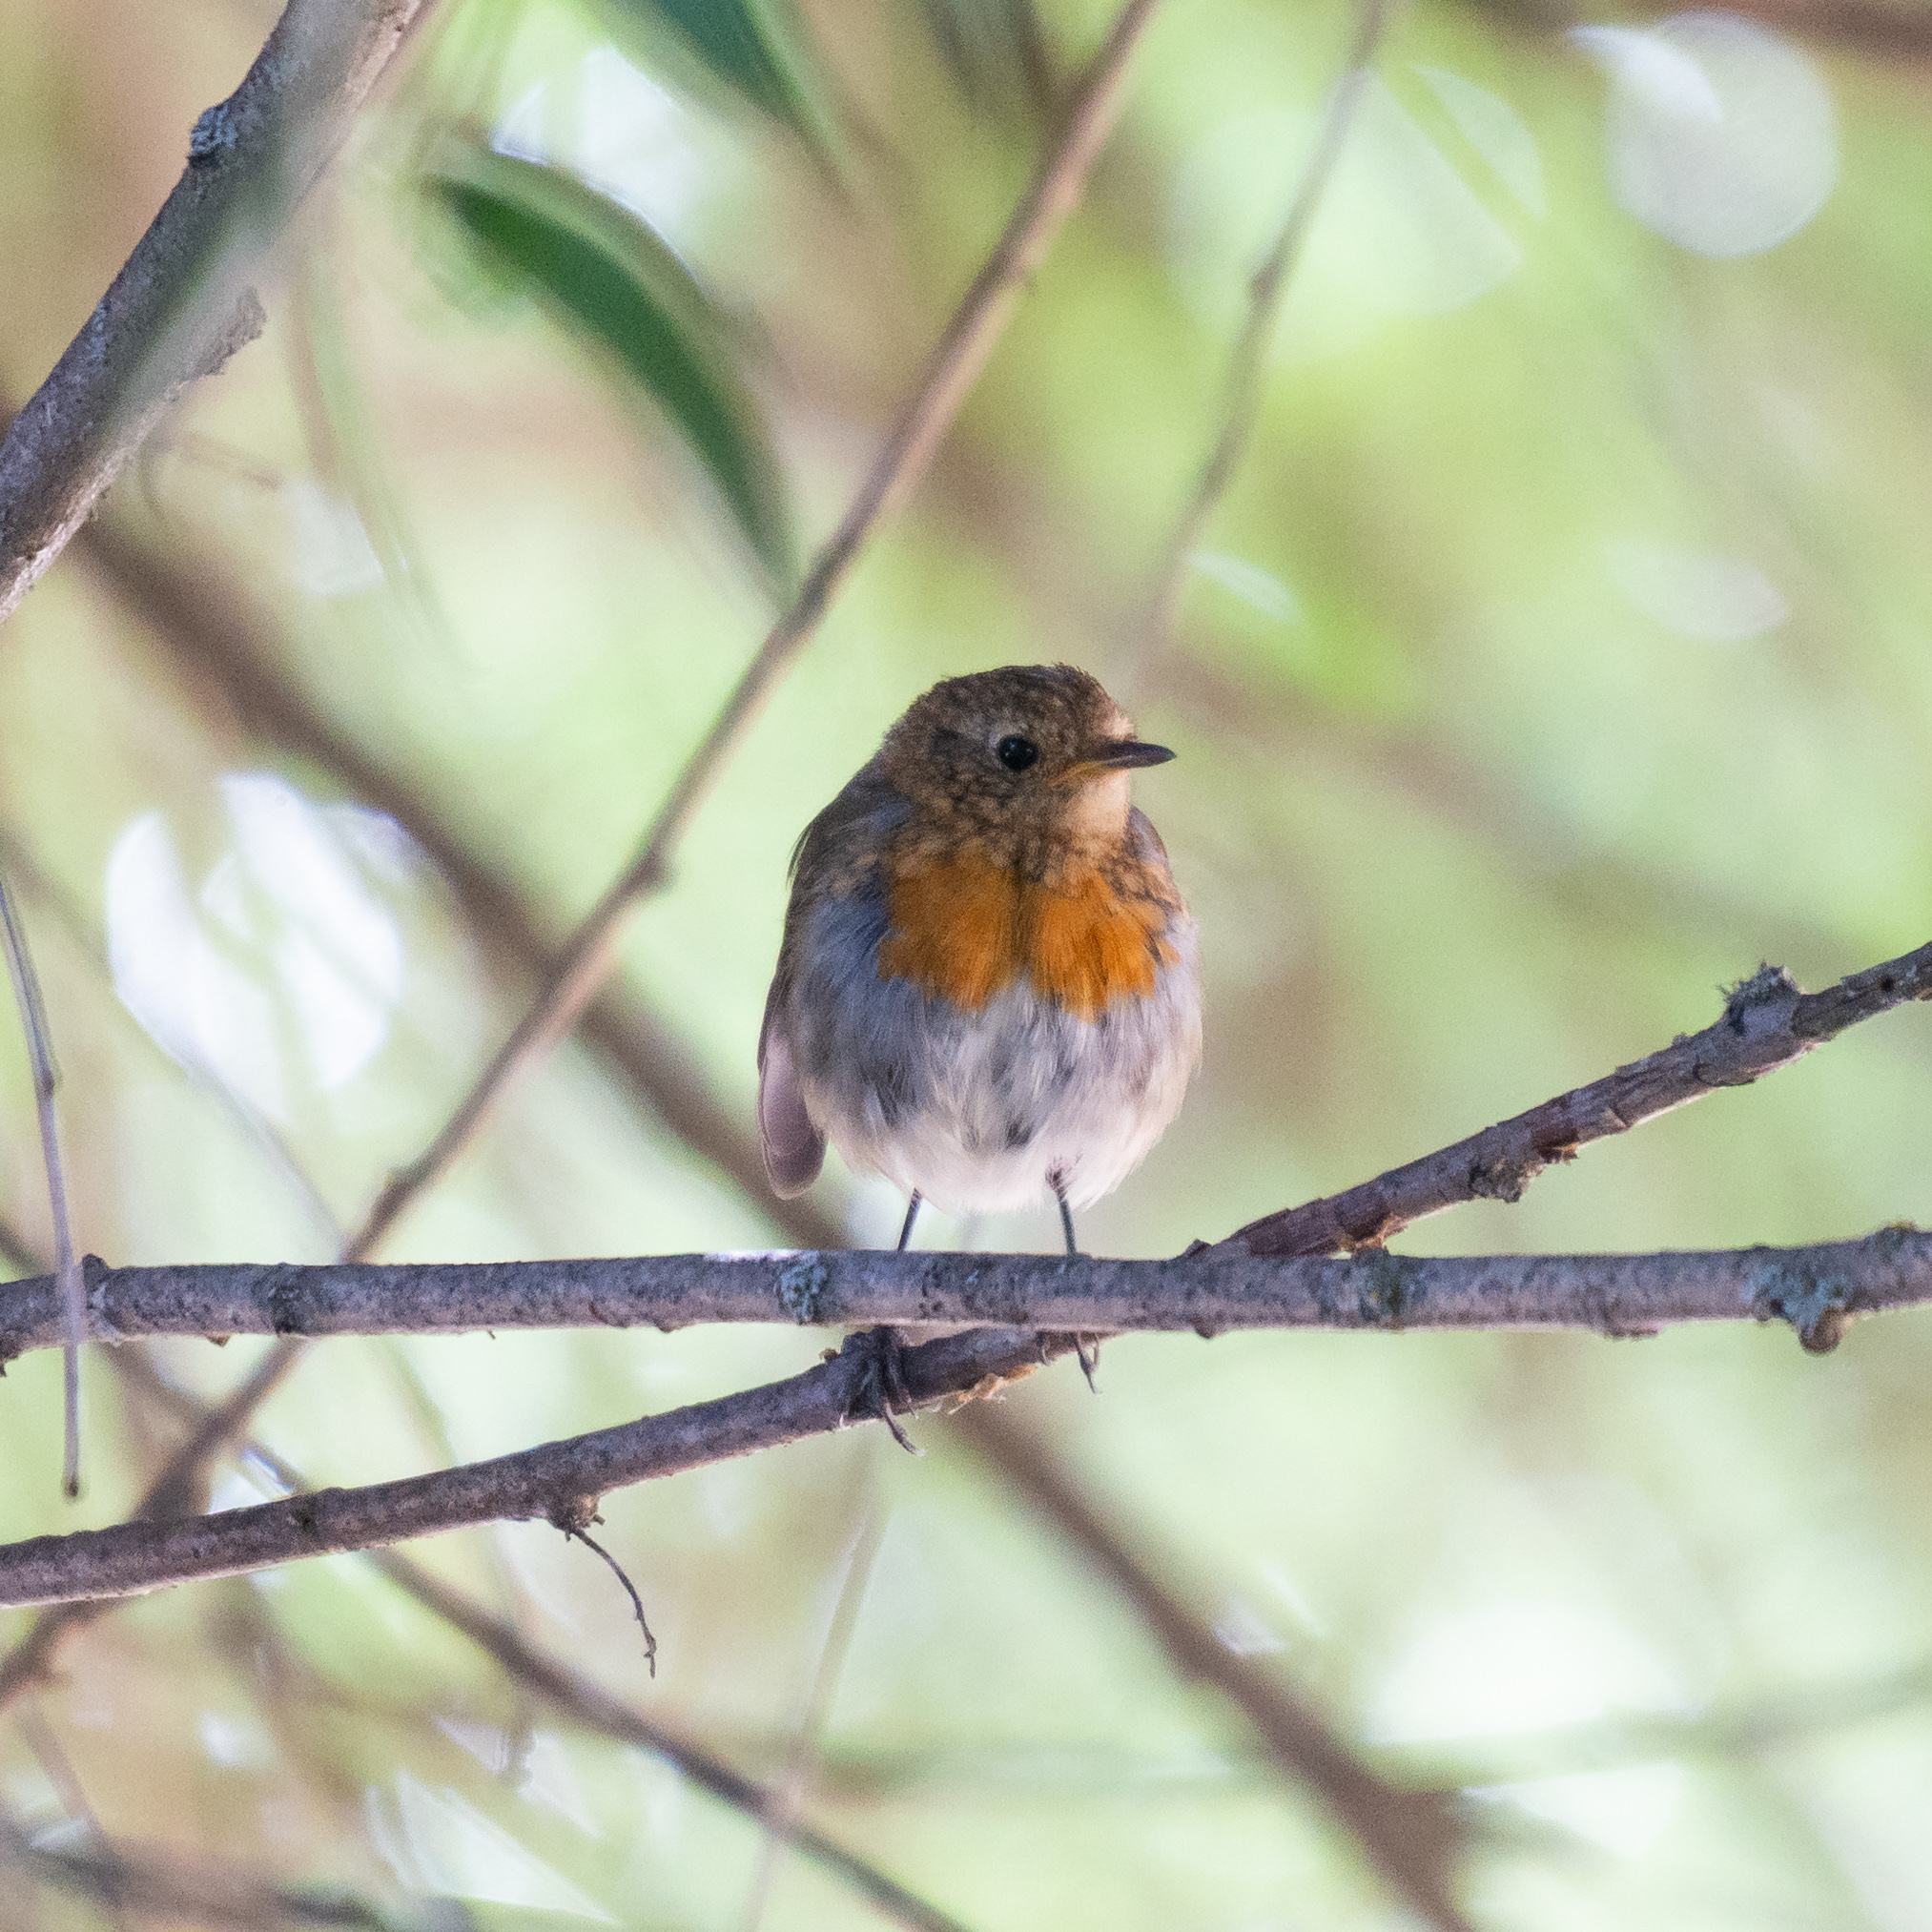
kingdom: Animalia
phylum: Chordata
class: Aves
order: Passeriformes
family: Muscicapidae
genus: Erithacus
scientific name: Erithacus rubecula
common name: European robin
